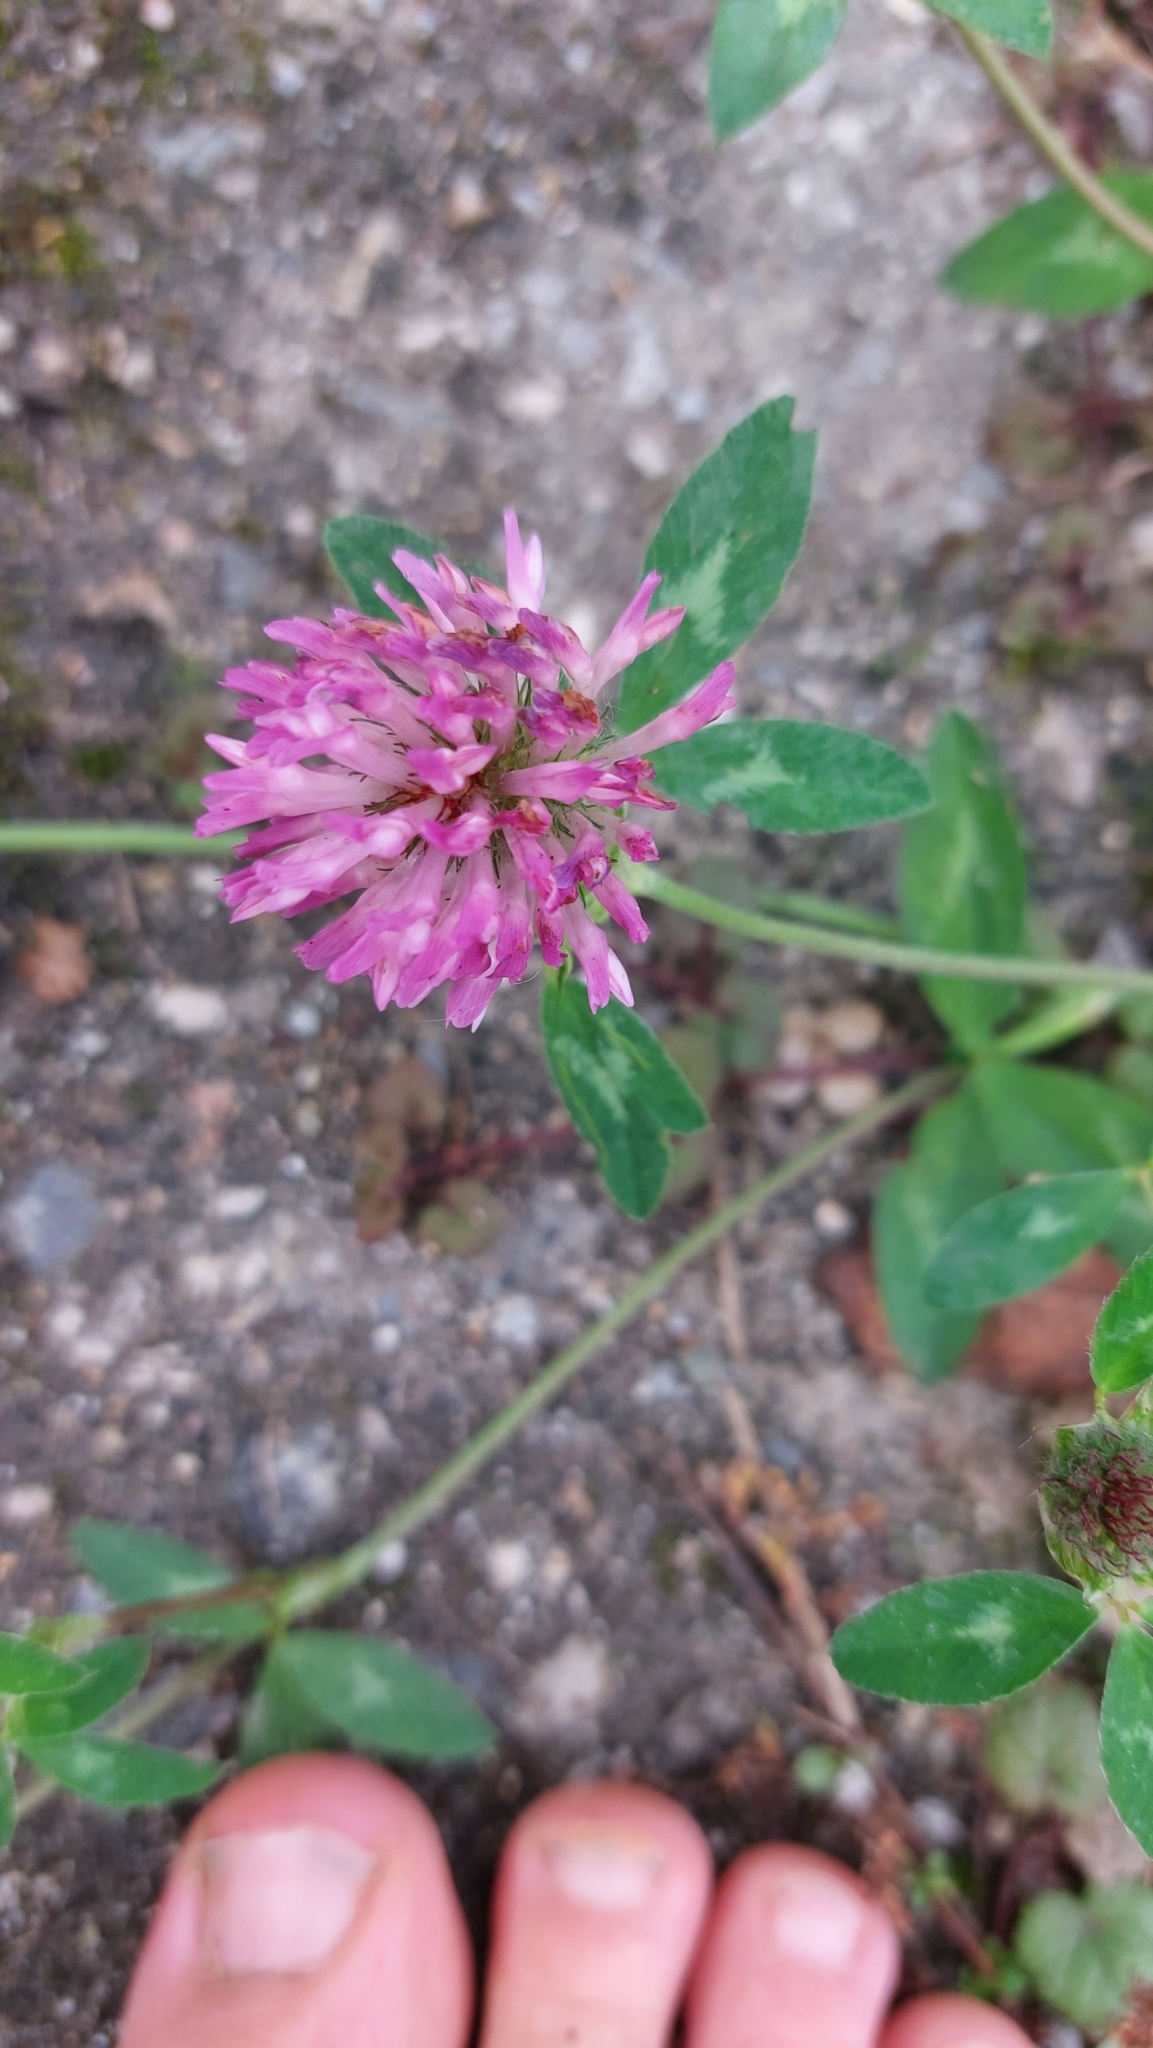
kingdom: Plantae
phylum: Tracheophyta
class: Magnoliopsida
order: Fabales
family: Fabaceae
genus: Trifolium
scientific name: Trifolium pratense
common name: Red clover
